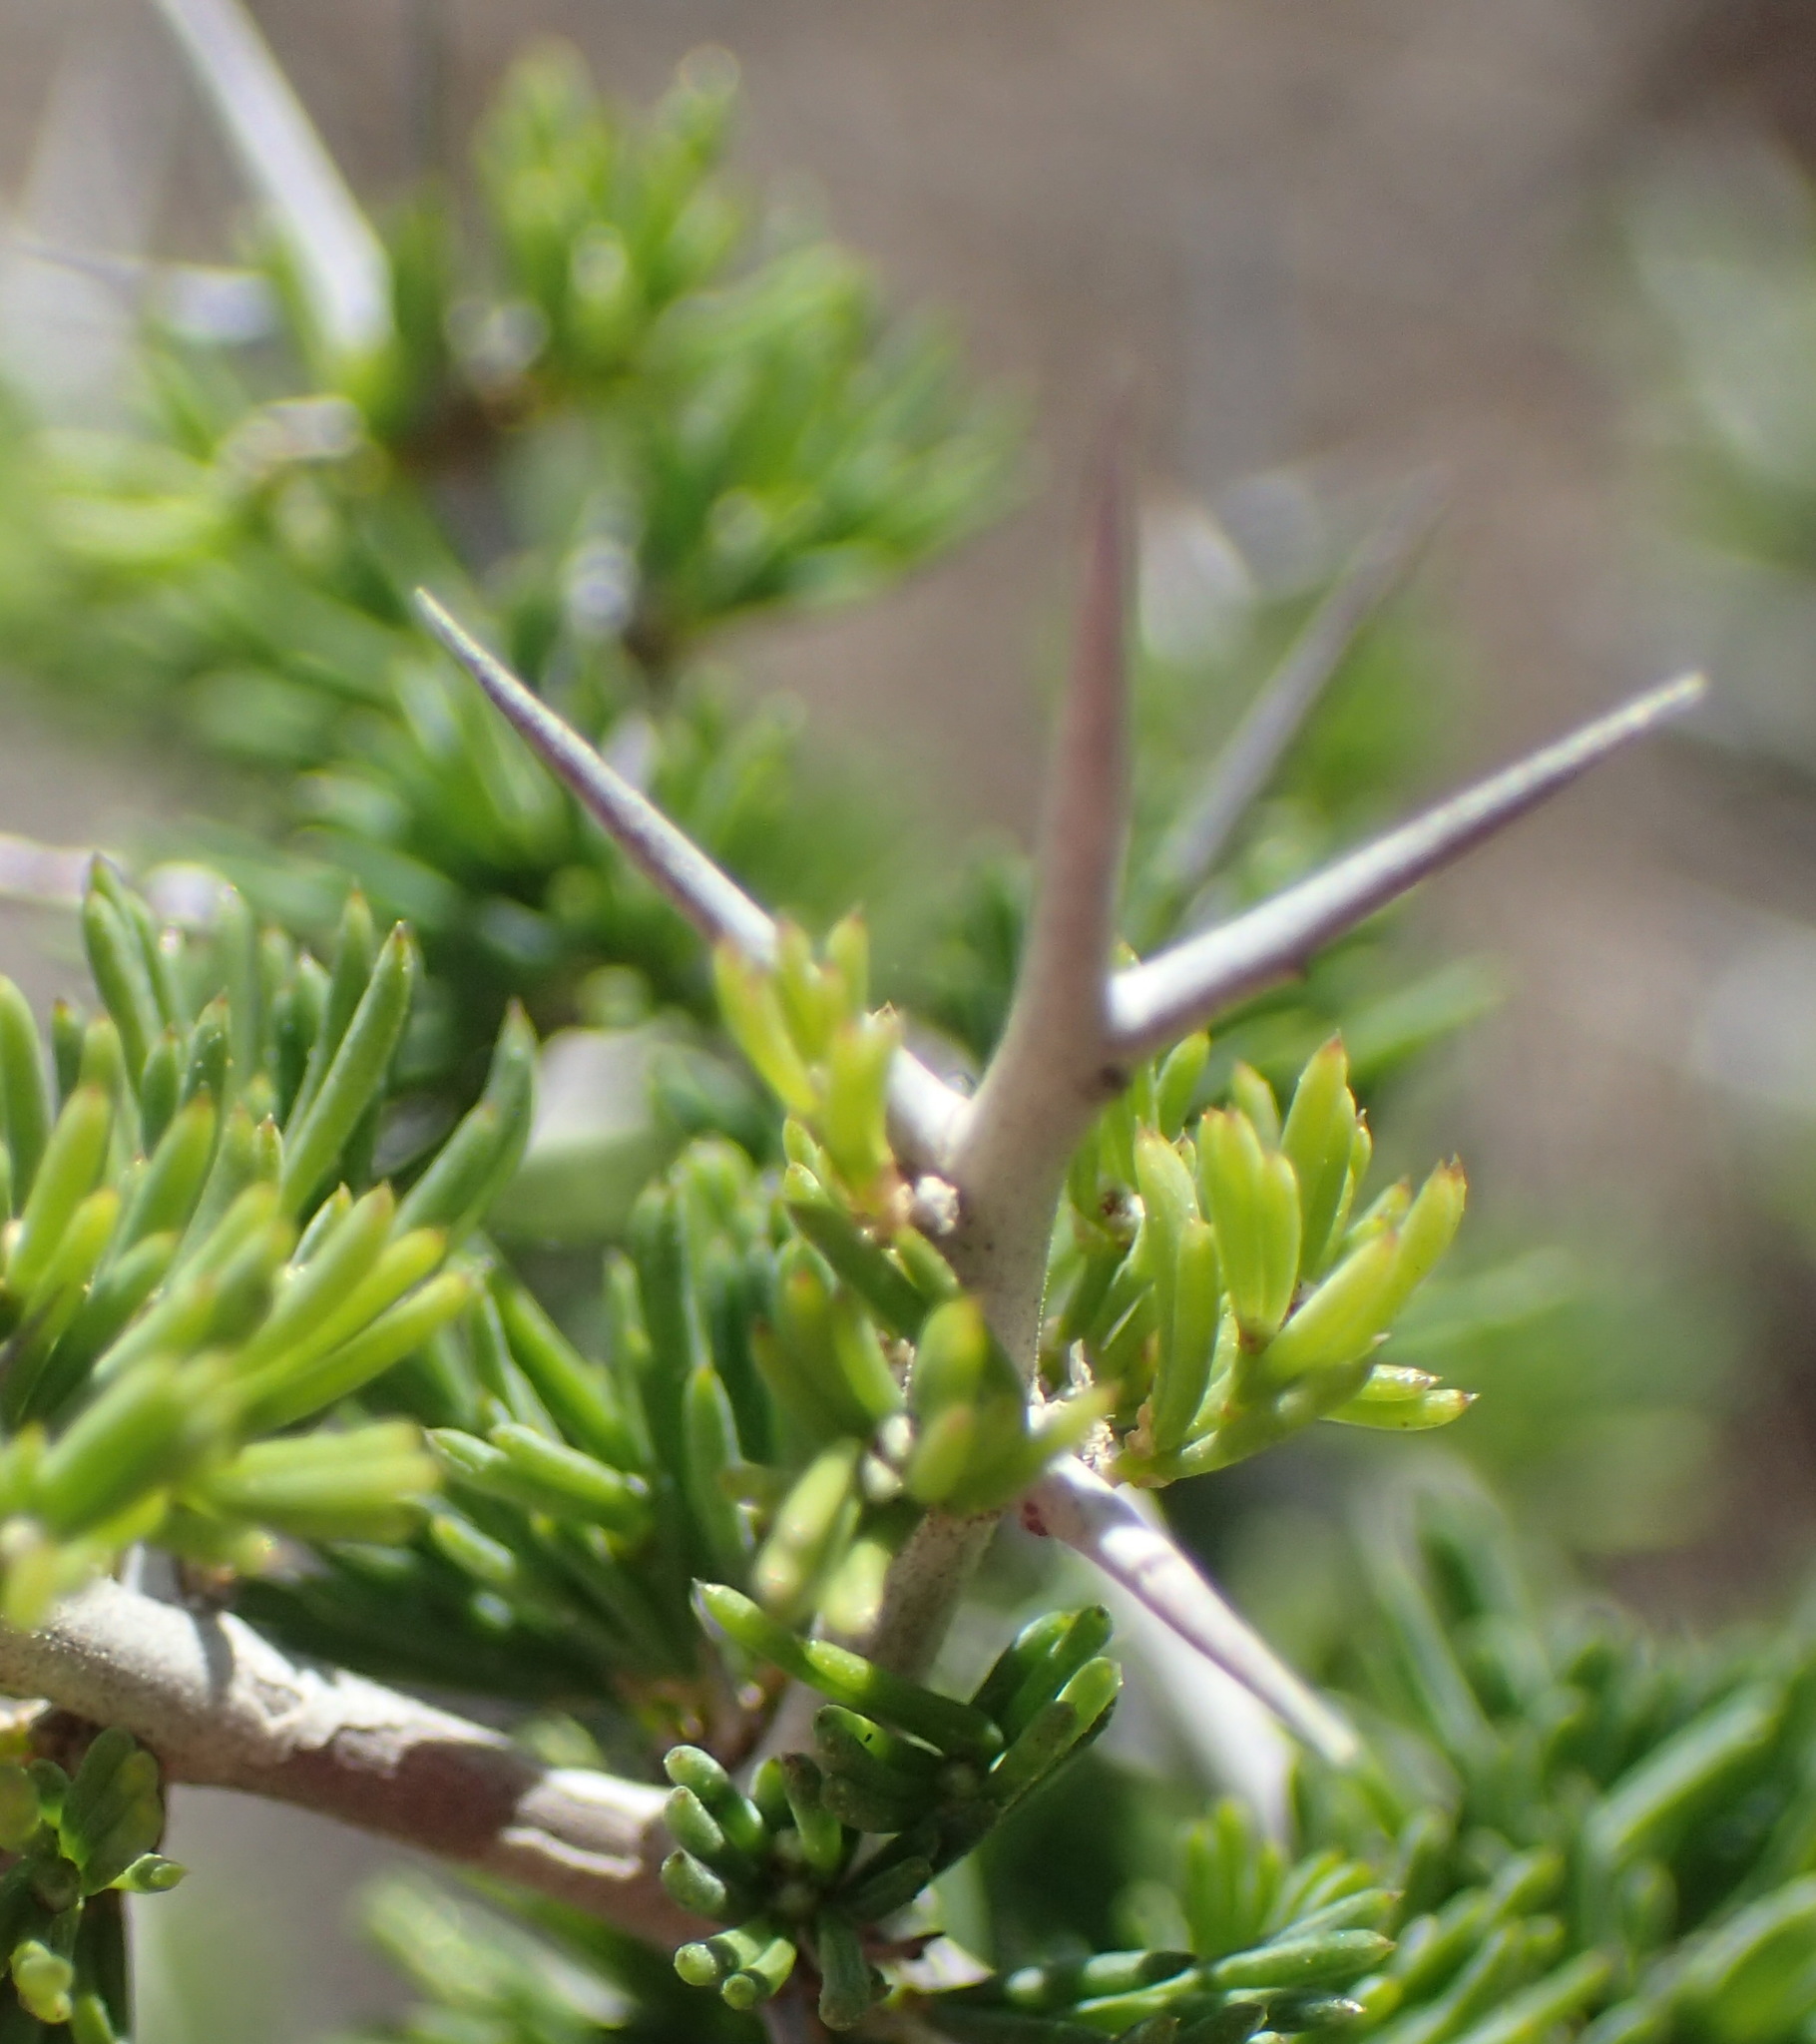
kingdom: Plantae
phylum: Tracheophyta
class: Liliopsida
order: Asparagales
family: Asparagaceae
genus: Asparagus
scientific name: Asparagus mariae
